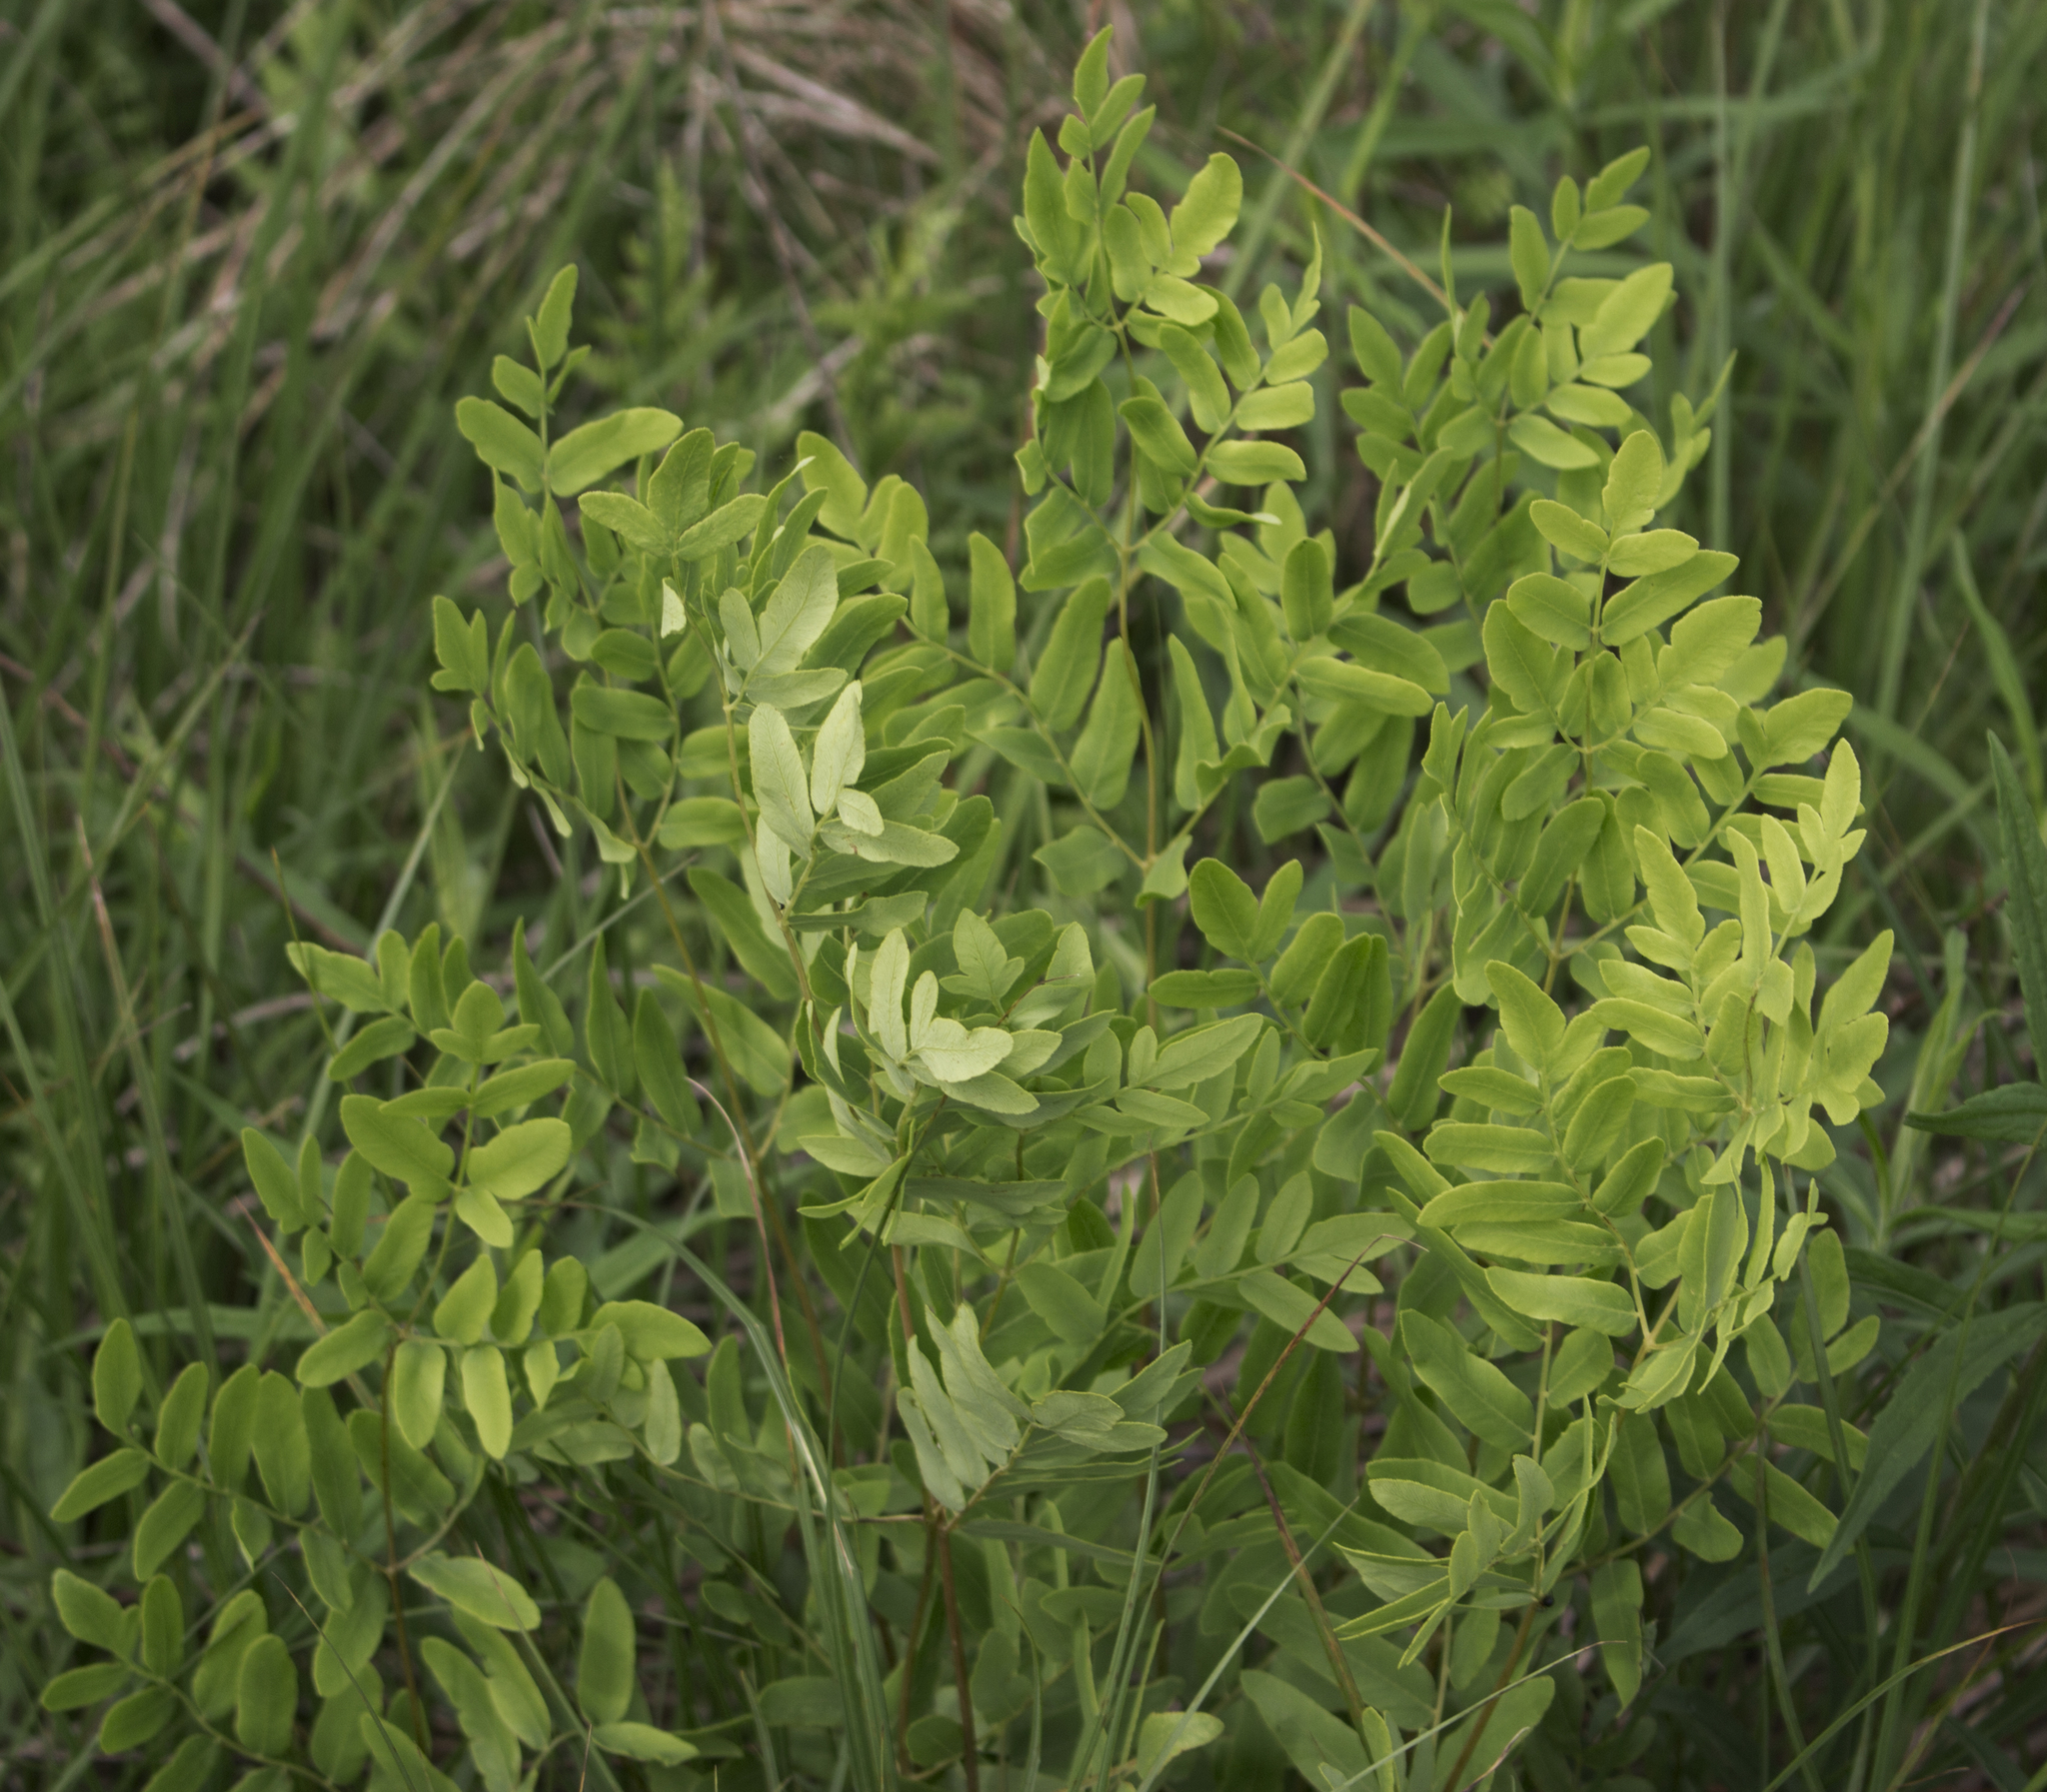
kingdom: Plantae
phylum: Tracheophyta
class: Polypodiopsida
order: Osmundales
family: Osmundaceae
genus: Osmunda
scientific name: Osmunda spectabilis
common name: American royal fern
